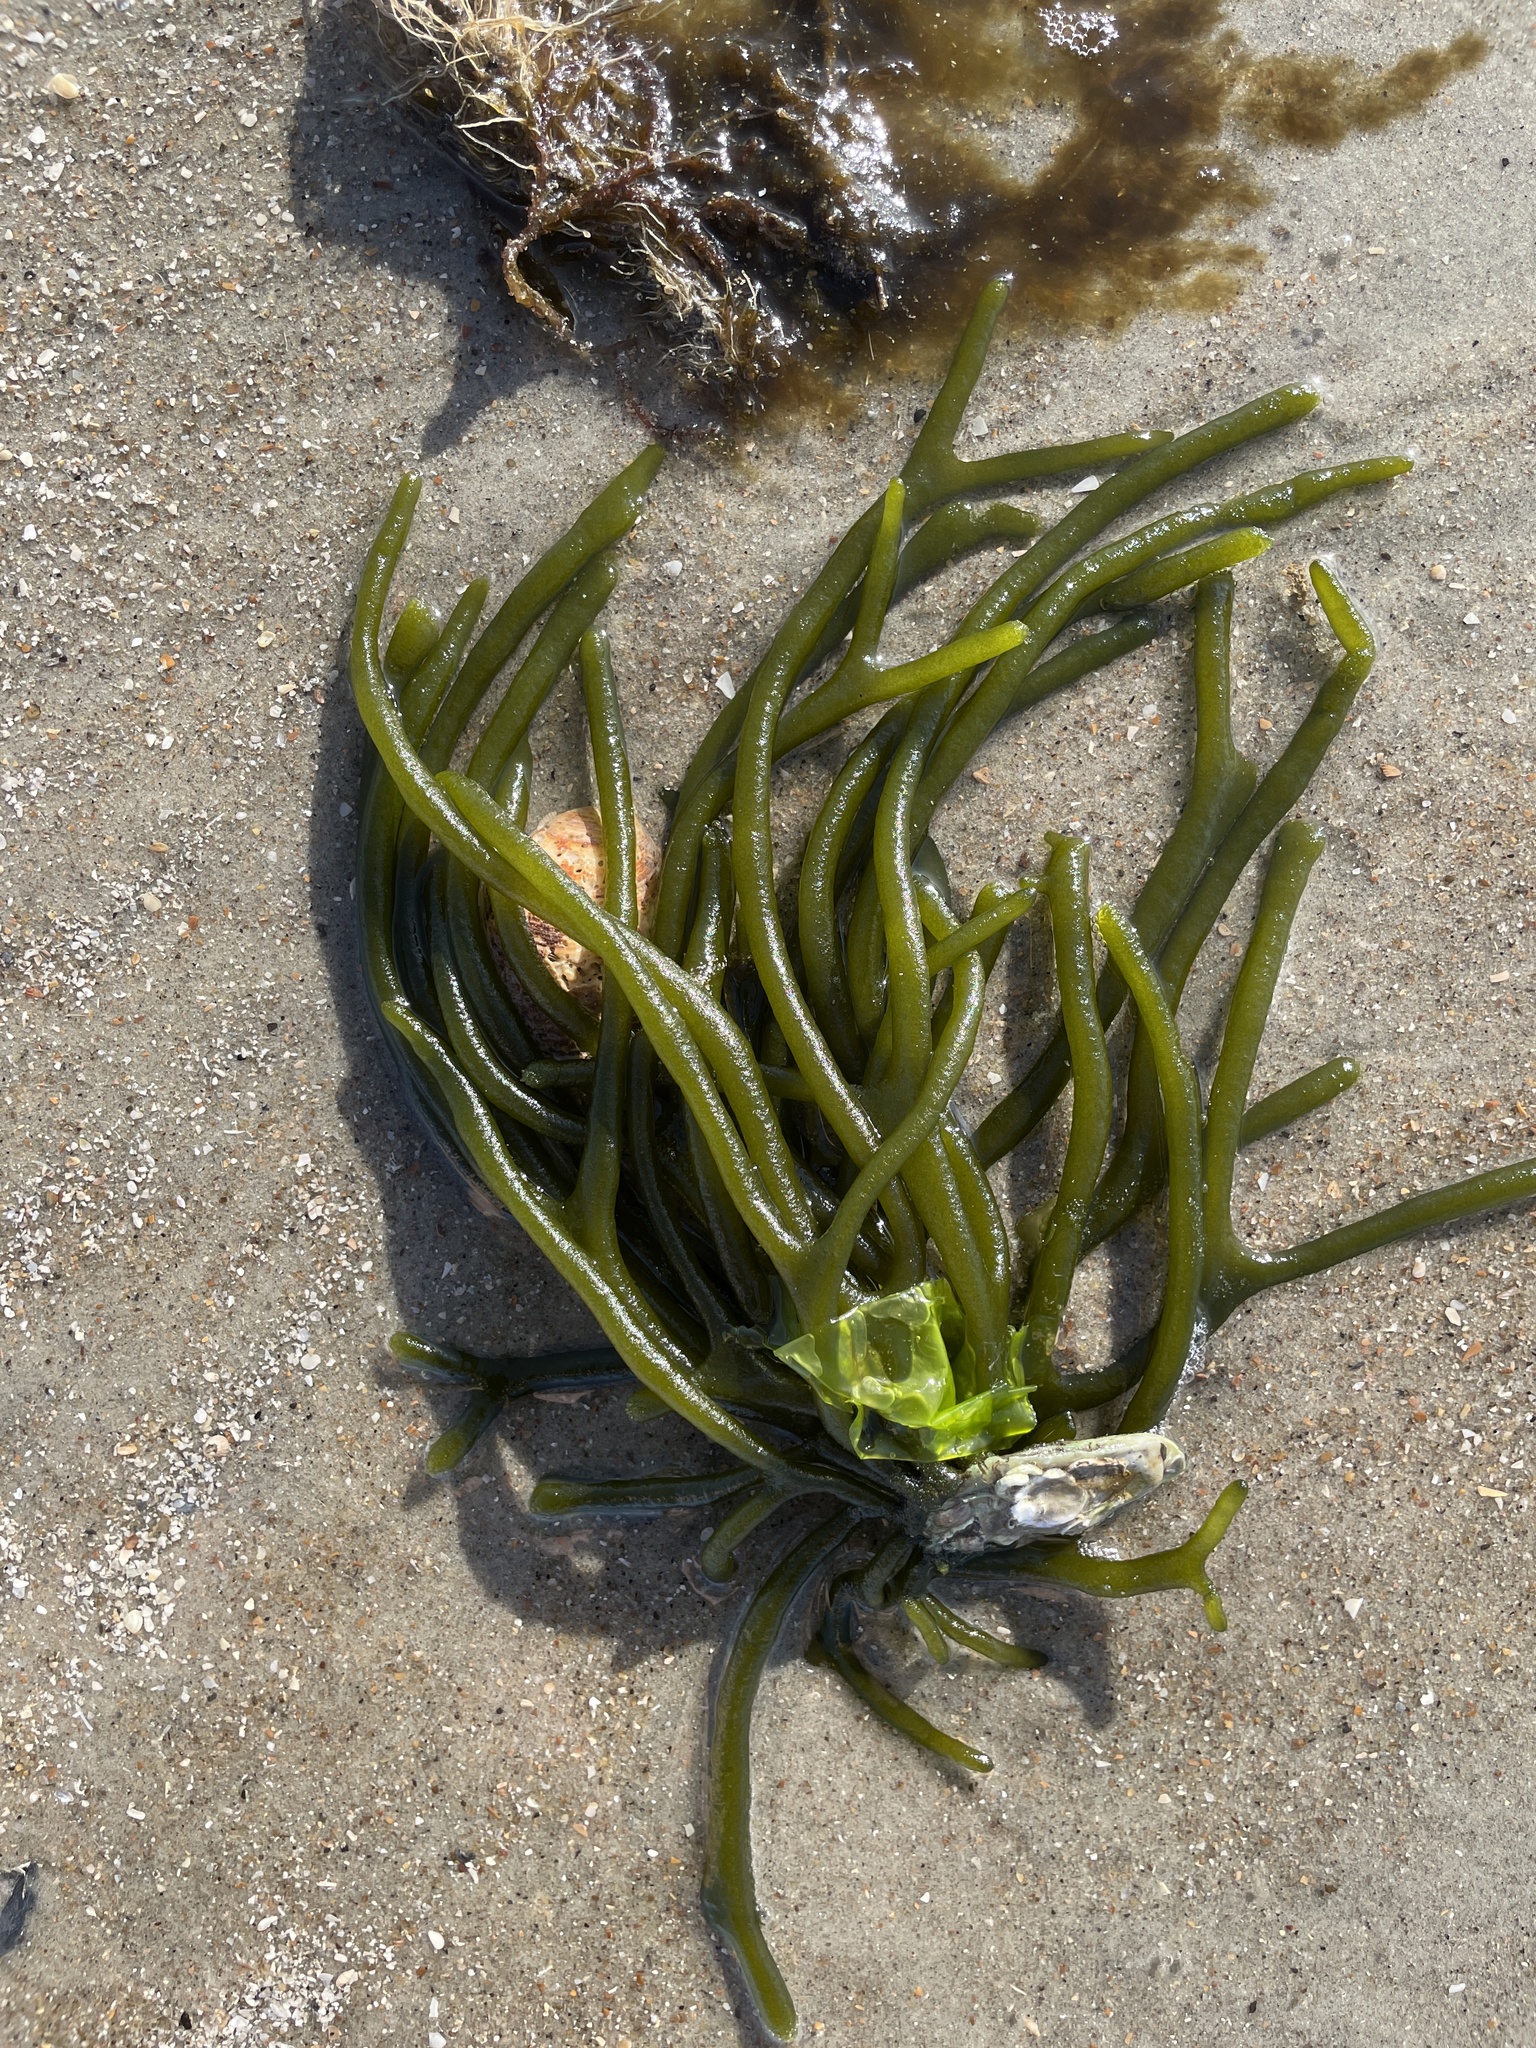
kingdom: Plantae
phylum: Chlorophyta
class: Ulvophyceae
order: Bryopsidales
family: Codiaceae
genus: Codium
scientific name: Codium fragile
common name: Dead man's fingers
